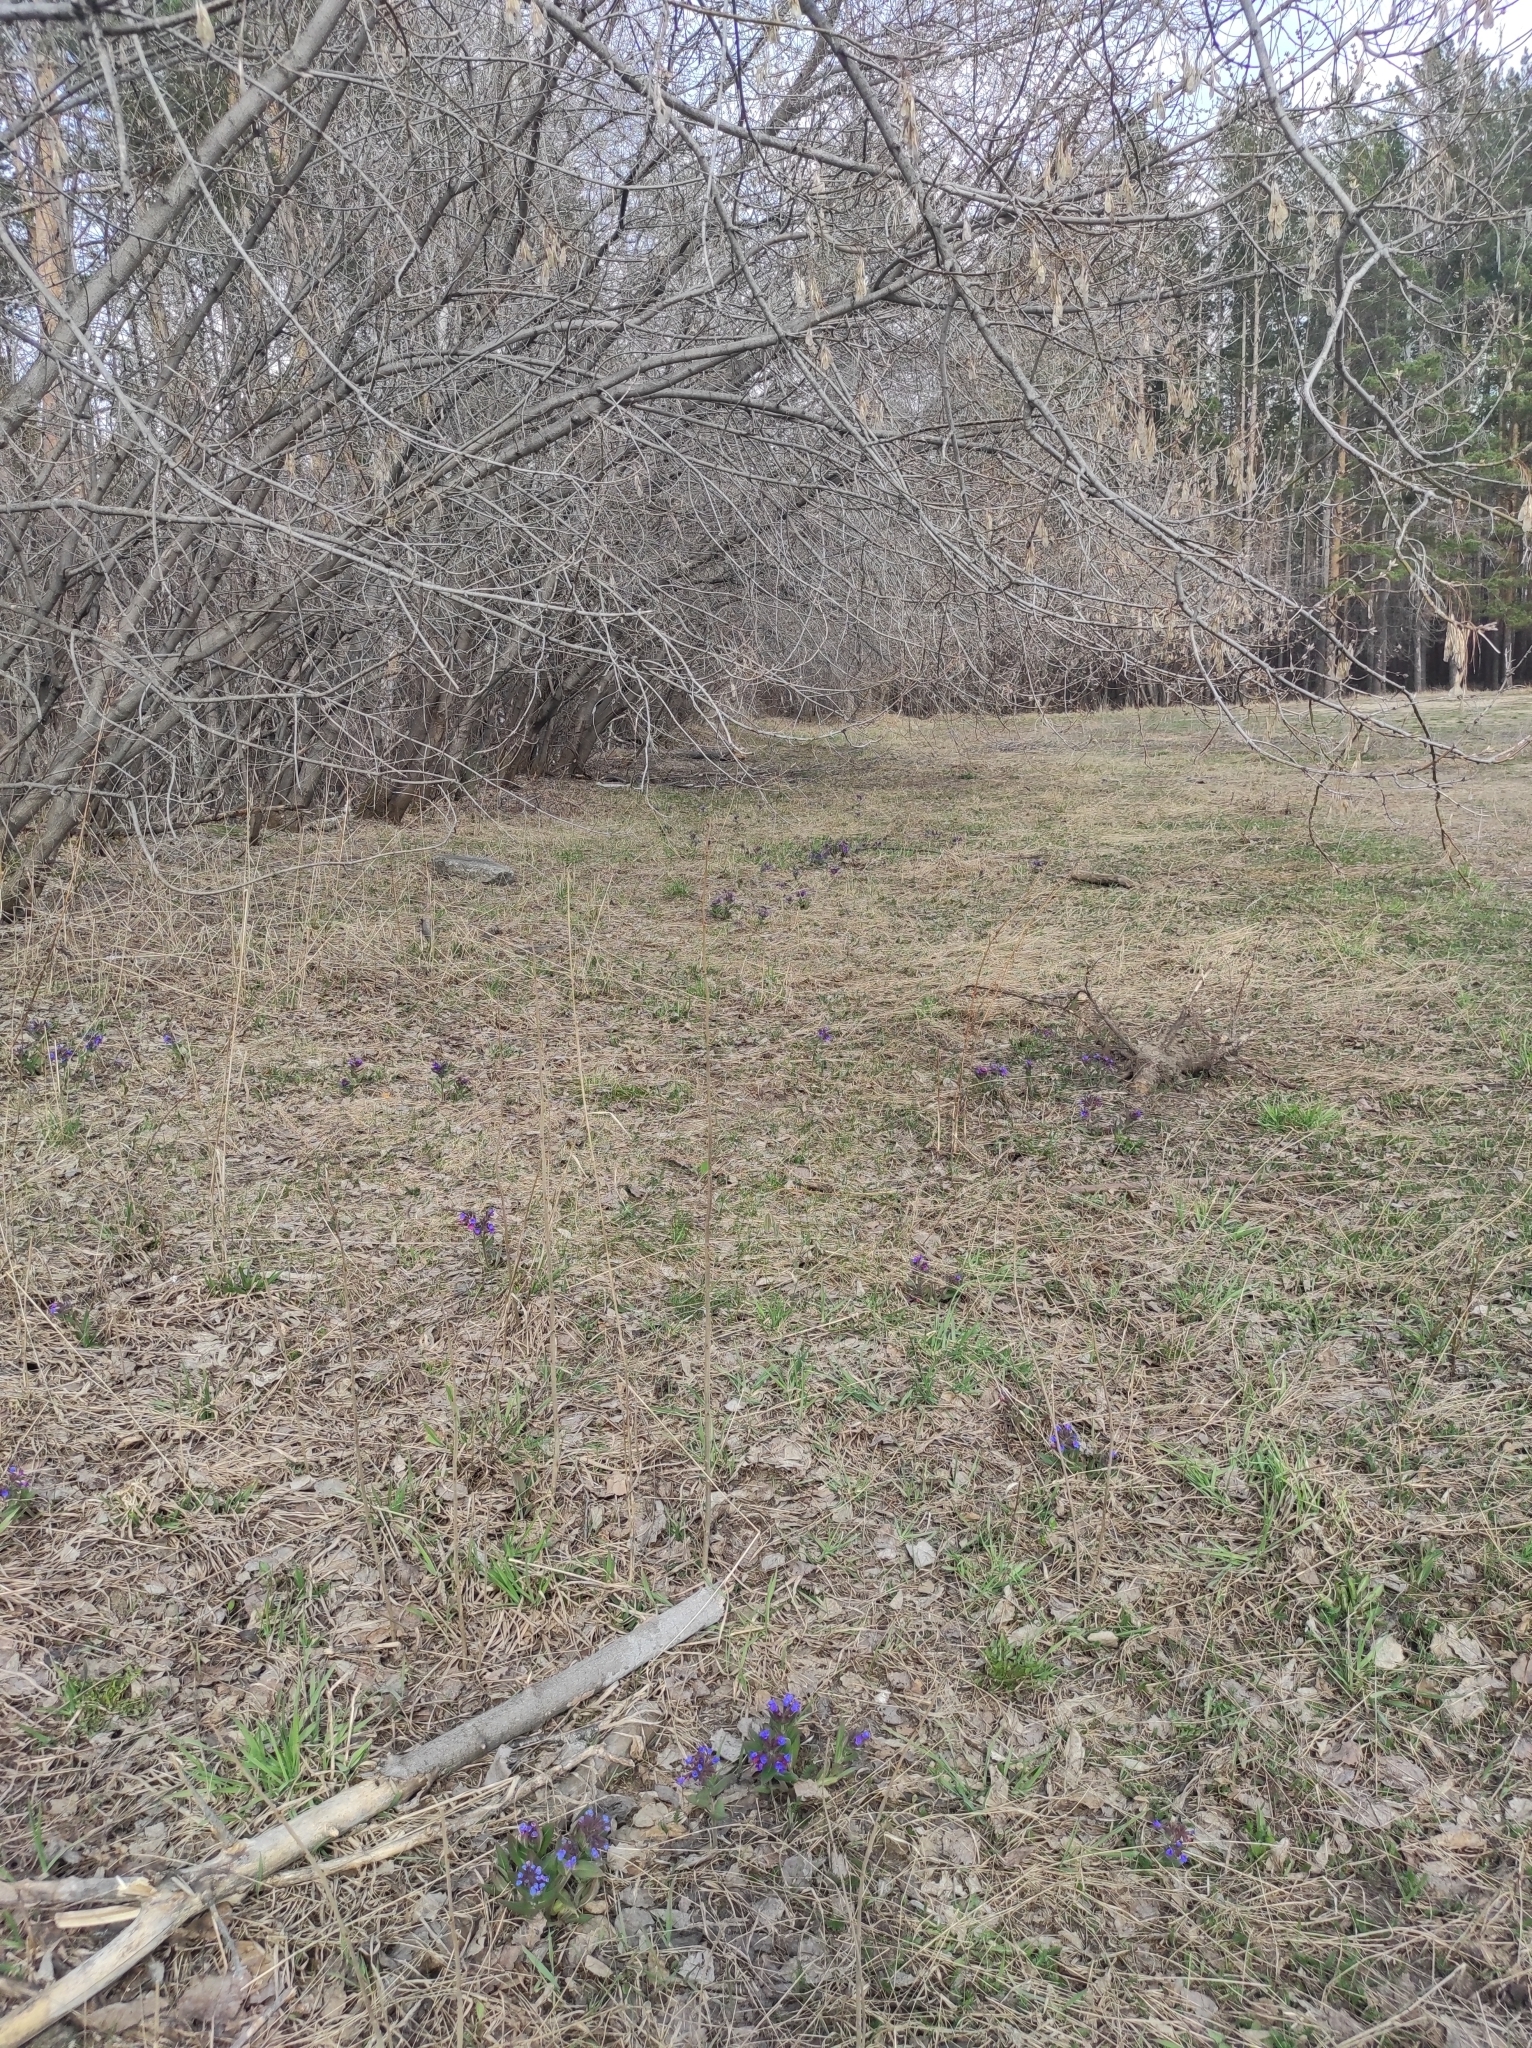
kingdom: Plantae
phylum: Tracheophyta
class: Magnoliopsida
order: Boraginales
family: Boraginaceae
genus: Pulmonaria
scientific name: Pulmonaria mollis
